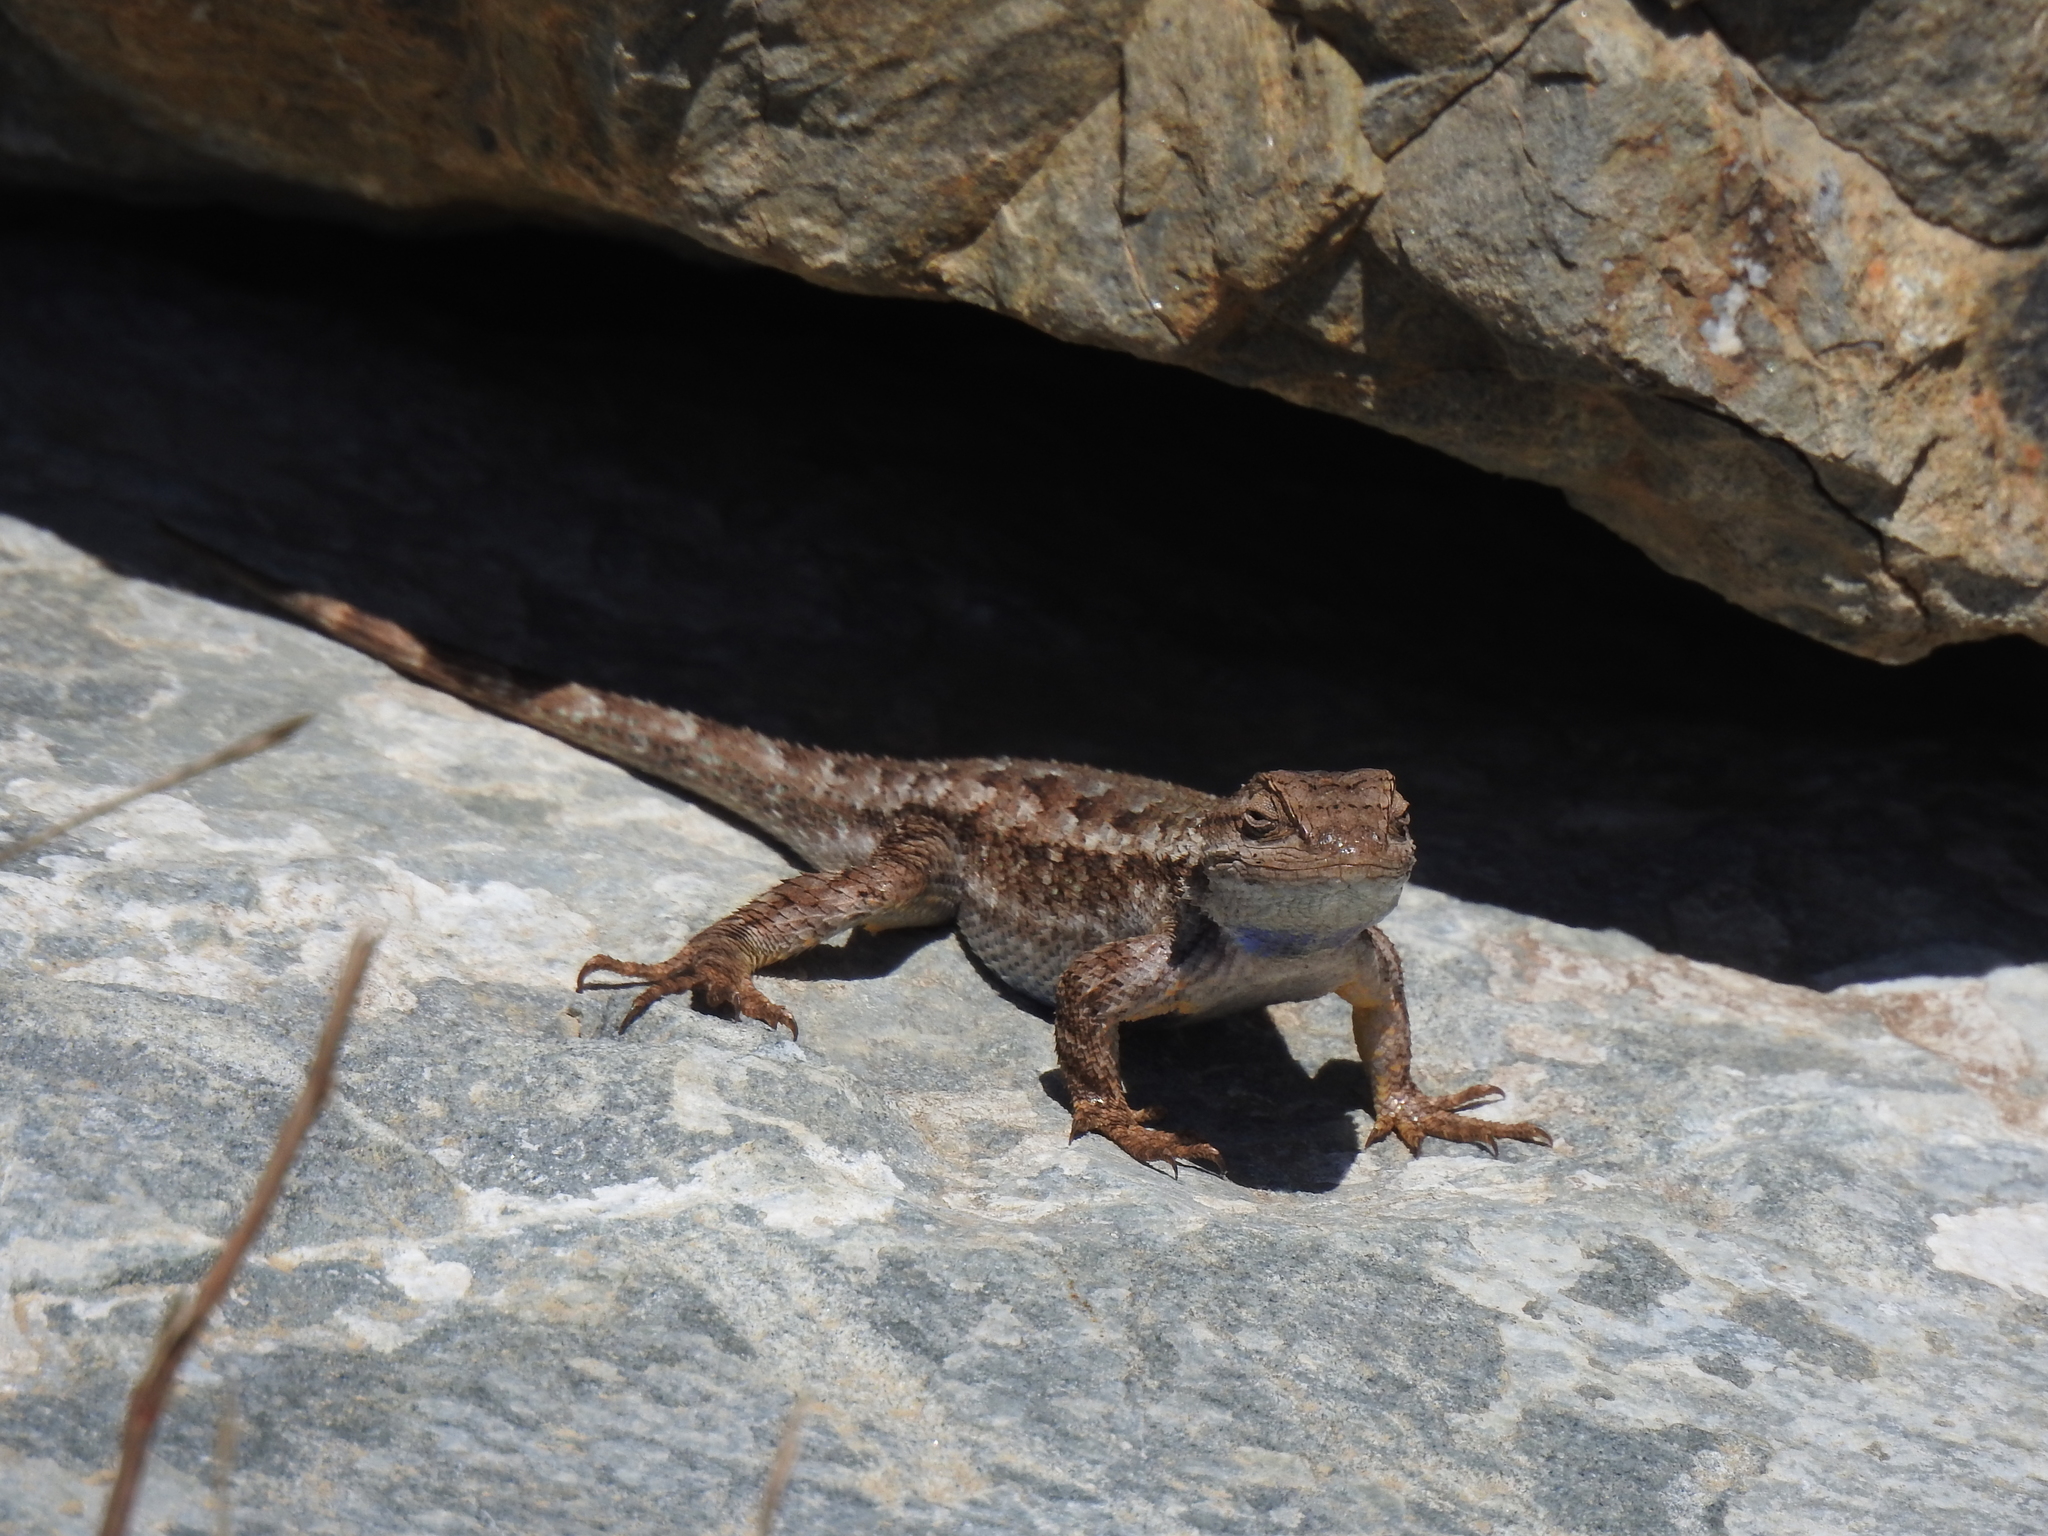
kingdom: Animalia
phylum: Chordata
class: Squamata
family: Phrynosomatidae
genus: Sceloporus
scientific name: Sceloporus occidentalis
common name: Western fence lizard
